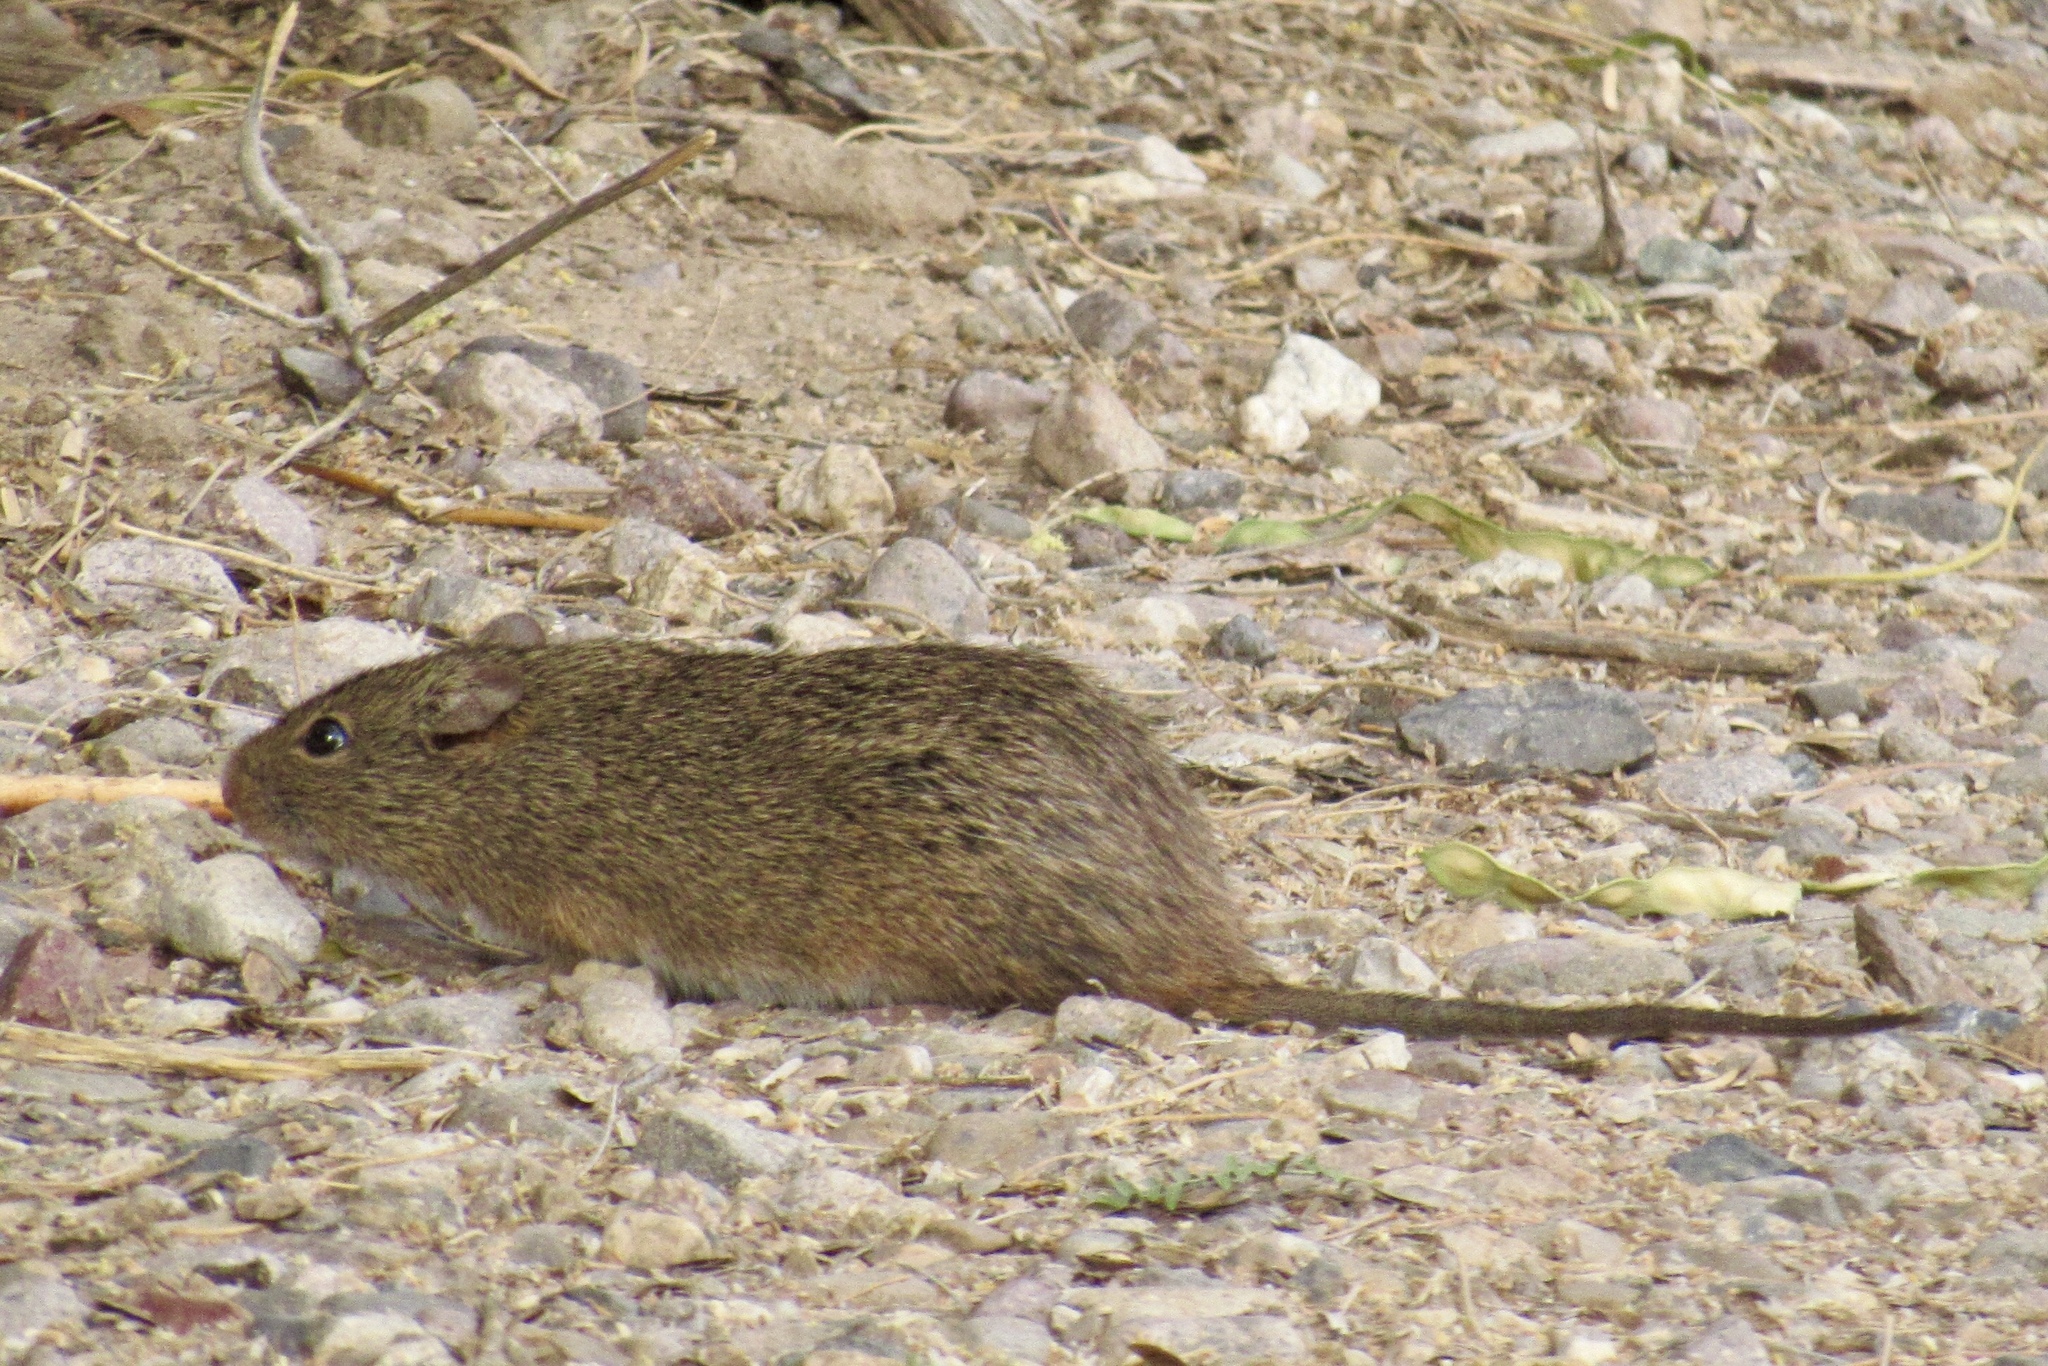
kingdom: Animalia
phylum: Chordata
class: Mammalia
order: Rodentia
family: Cricetidae
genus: Sigmodon
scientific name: Sigmodon arizonae
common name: Arizona cotton rat
